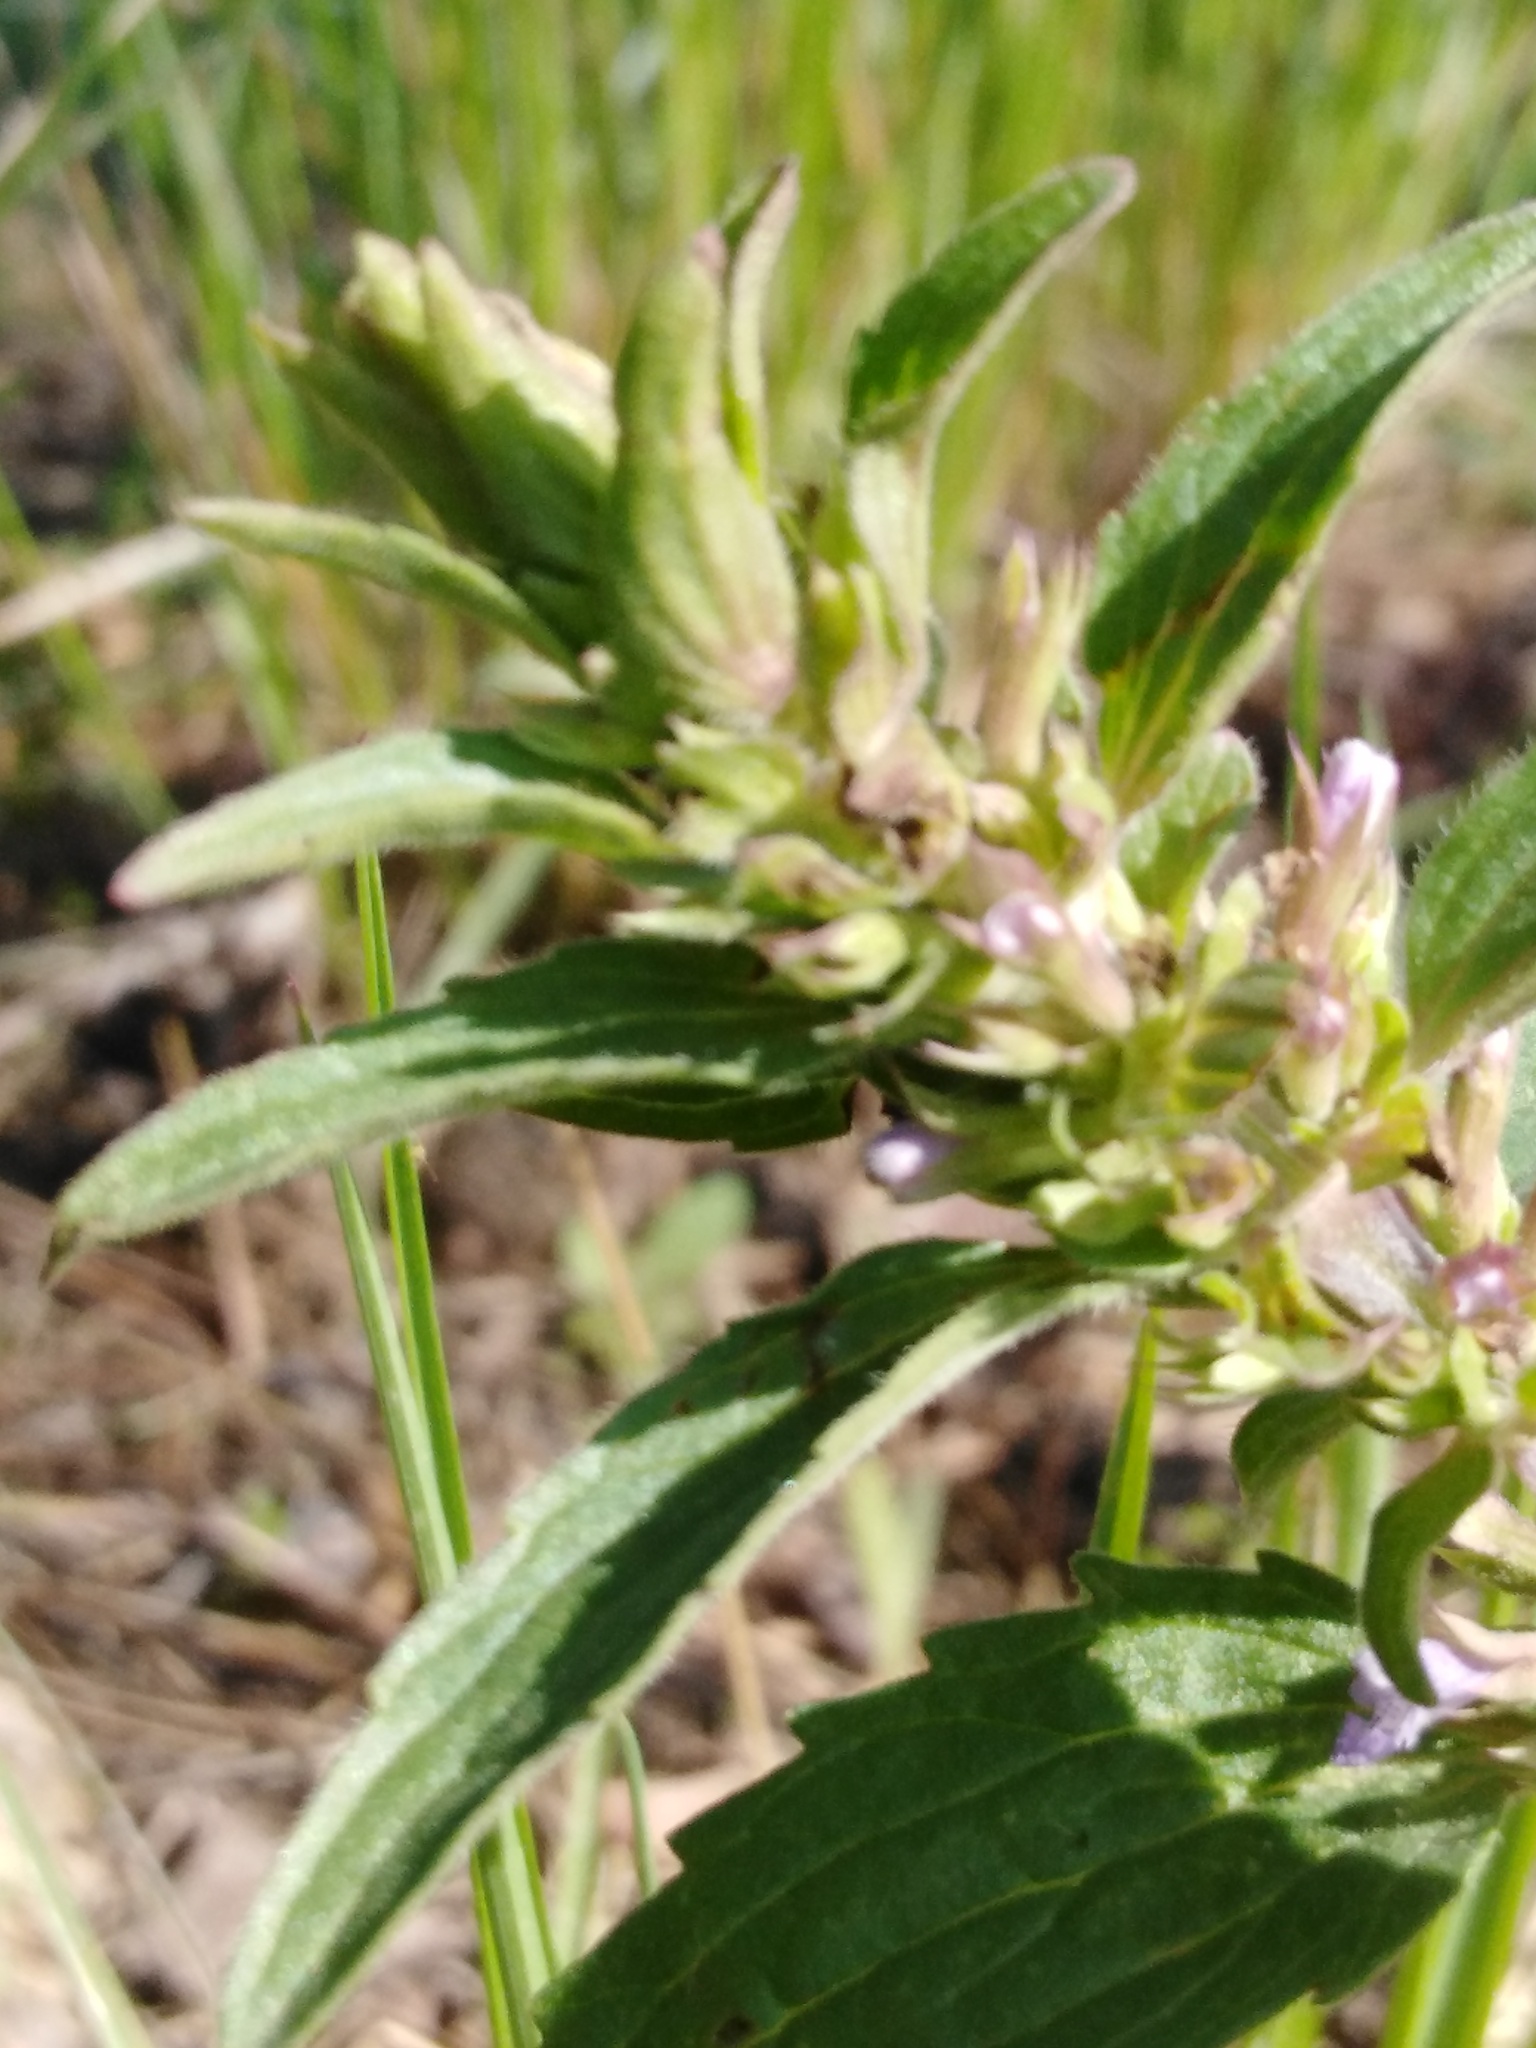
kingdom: Plantae
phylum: Tracheophyta
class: Magnoliopsida
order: Lamiales
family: Lamiaceae
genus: Dracocephalum
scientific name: Dracocephalum thymiflorum
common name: Thymeleaf dragonhead
